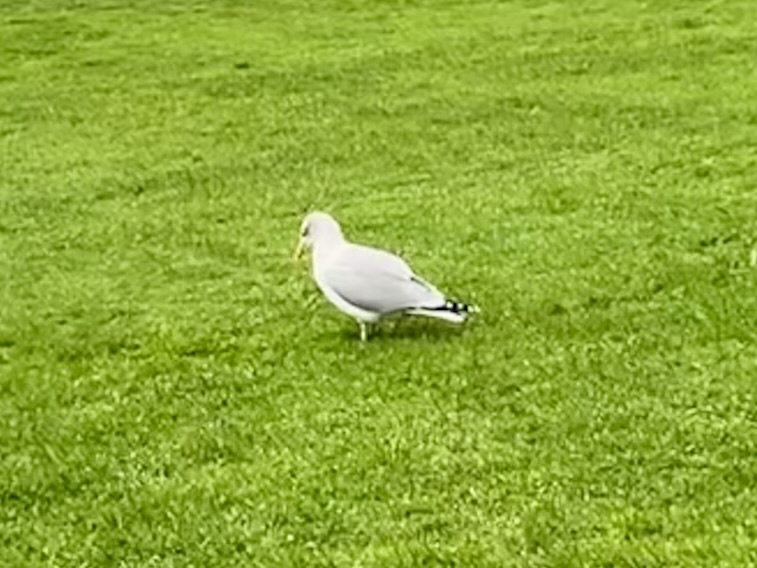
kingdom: Animalia
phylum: Chordata
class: Aves
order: Charadriiformes
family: Laridae
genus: Larus
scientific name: Larus argentatus
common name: Herring gull
